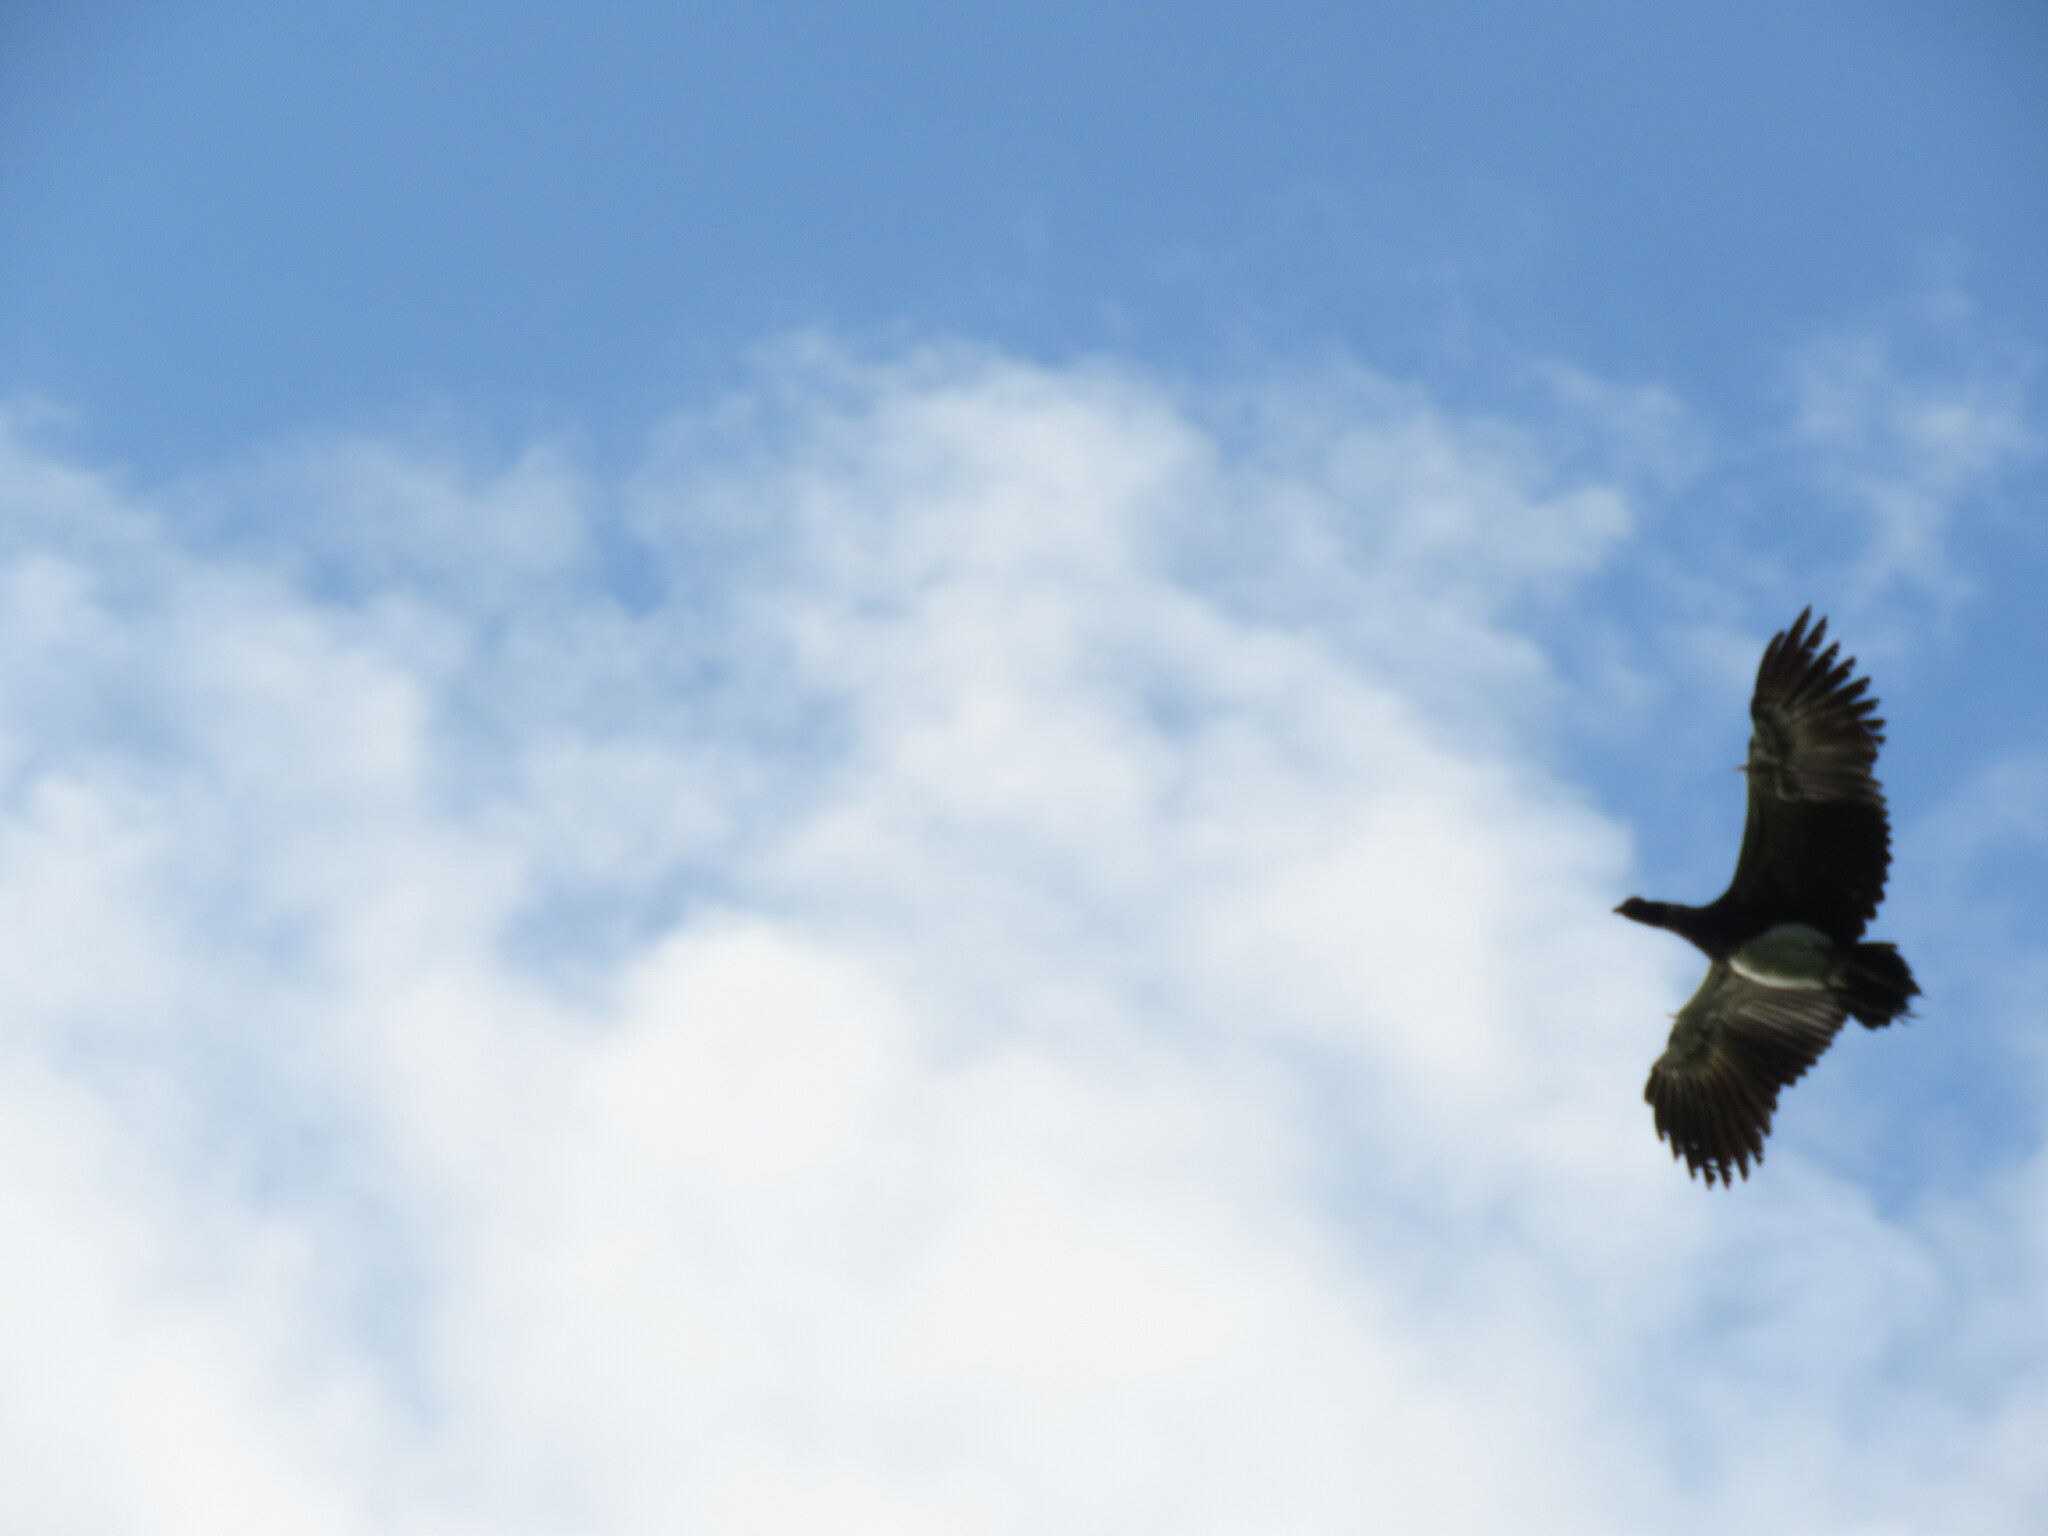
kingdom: Animalia
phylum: Chordata
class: Aves
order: Anseriformes
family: Anhimidae
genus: Anhima
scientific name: Anhima cornuta
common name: Horned screamer
